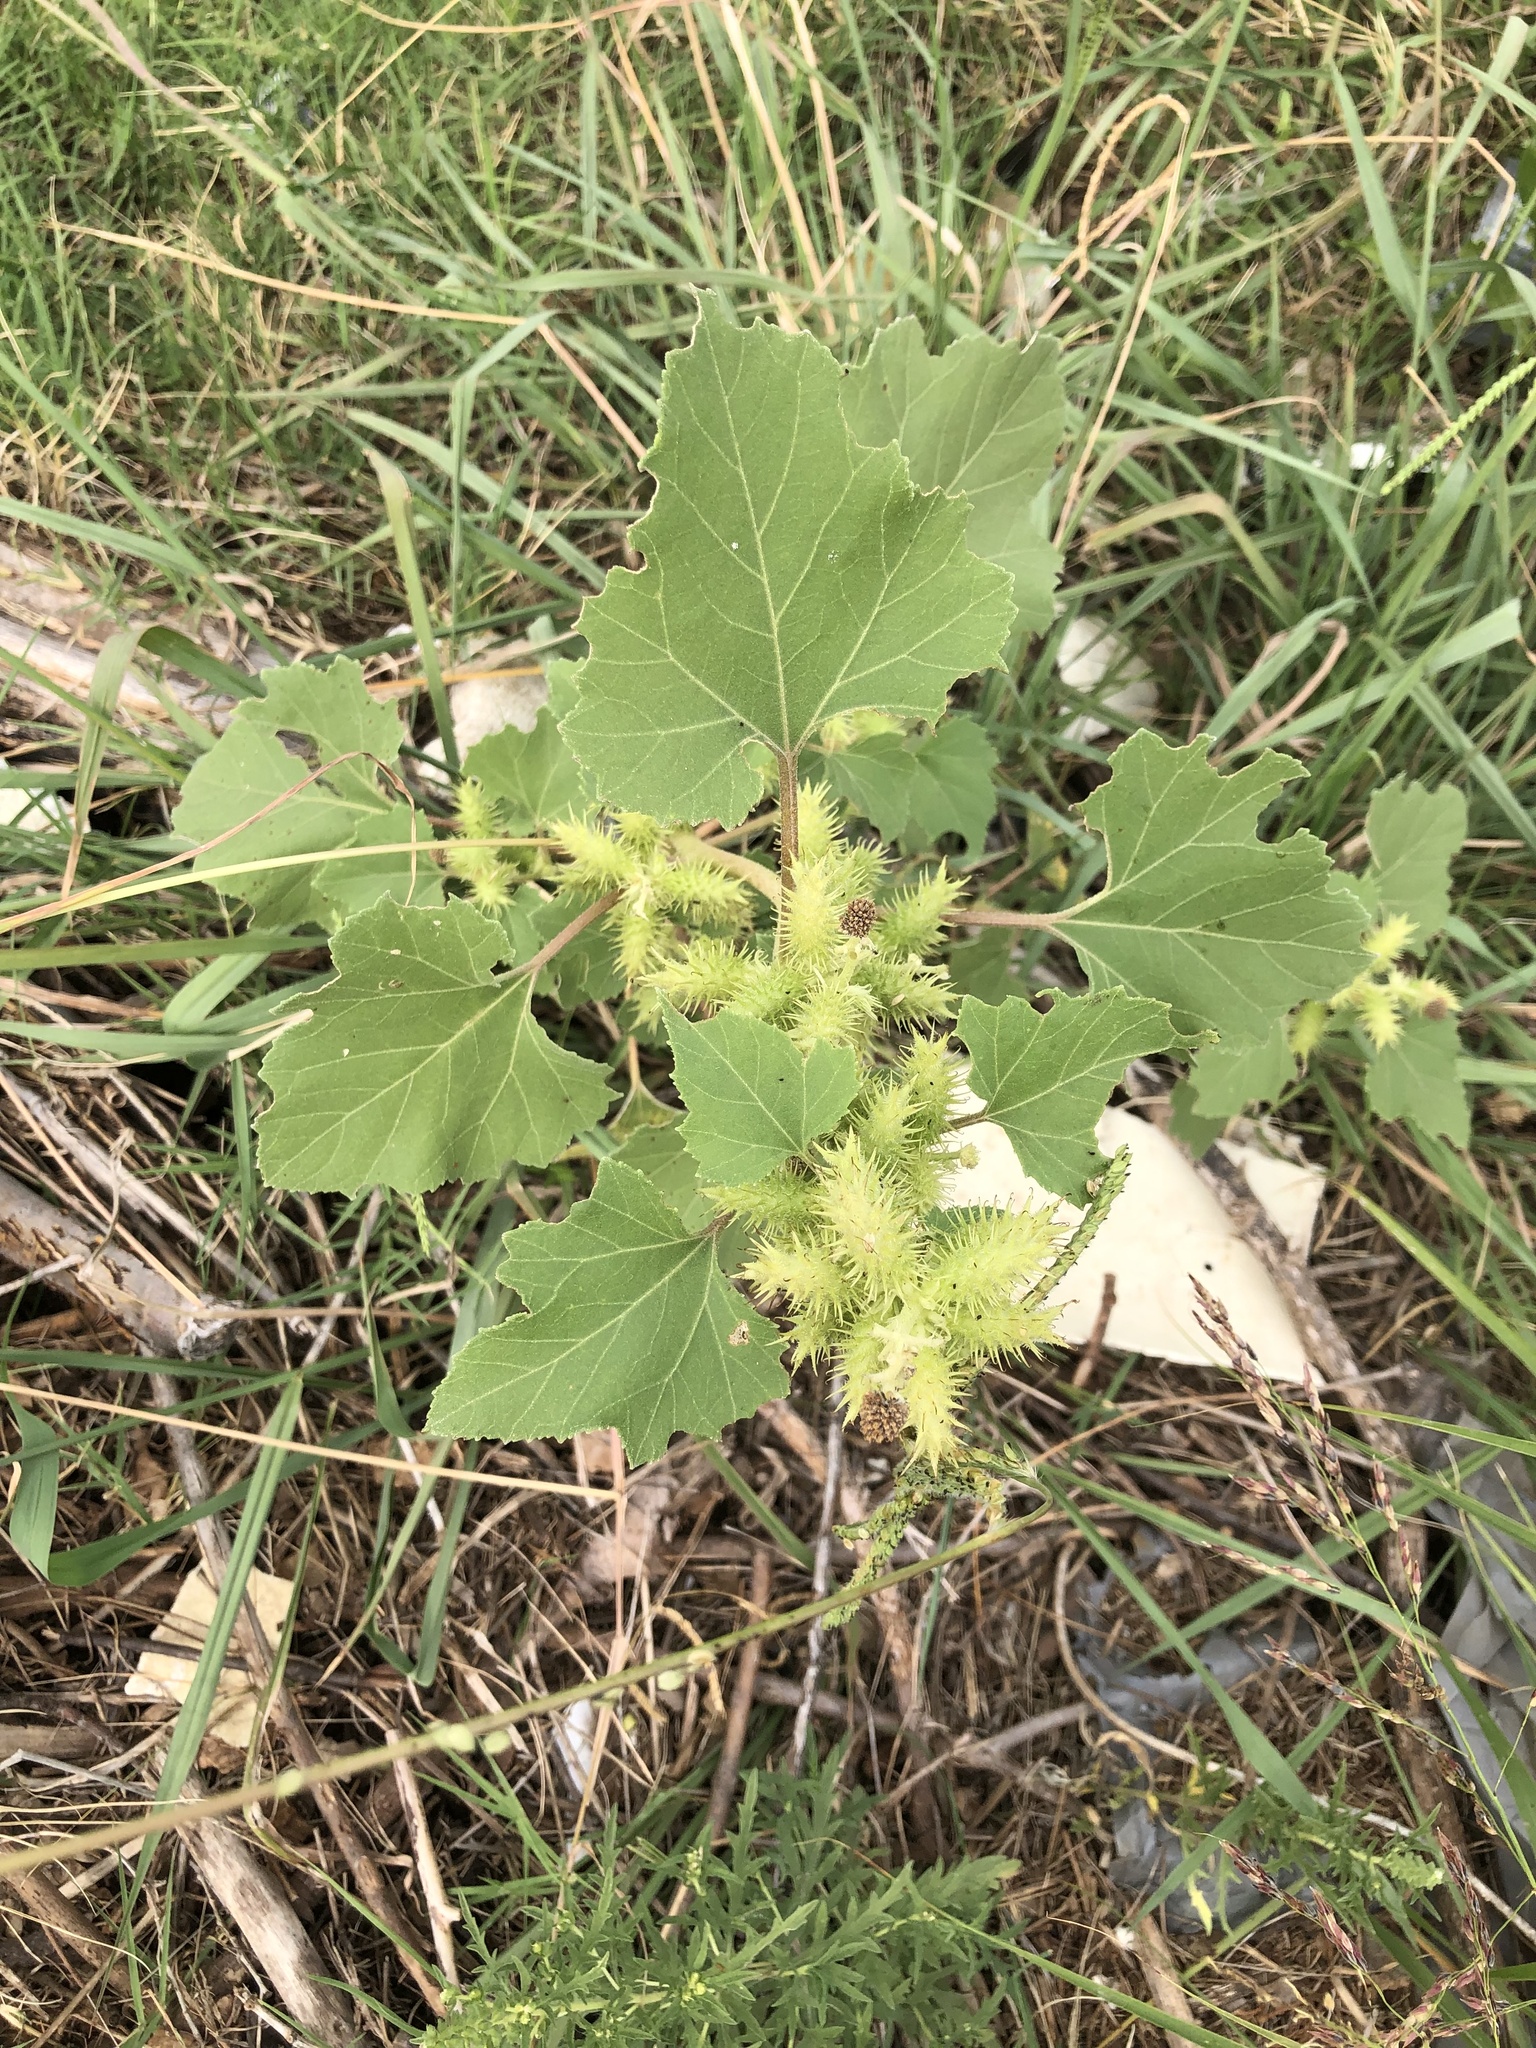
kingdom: Plantae
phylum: Tracheophyta
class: Magnoliopsida
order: Asterales
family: Asteraceae
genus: Xanthium
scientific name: Xanthium strumarium
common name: Rough cocklebur
